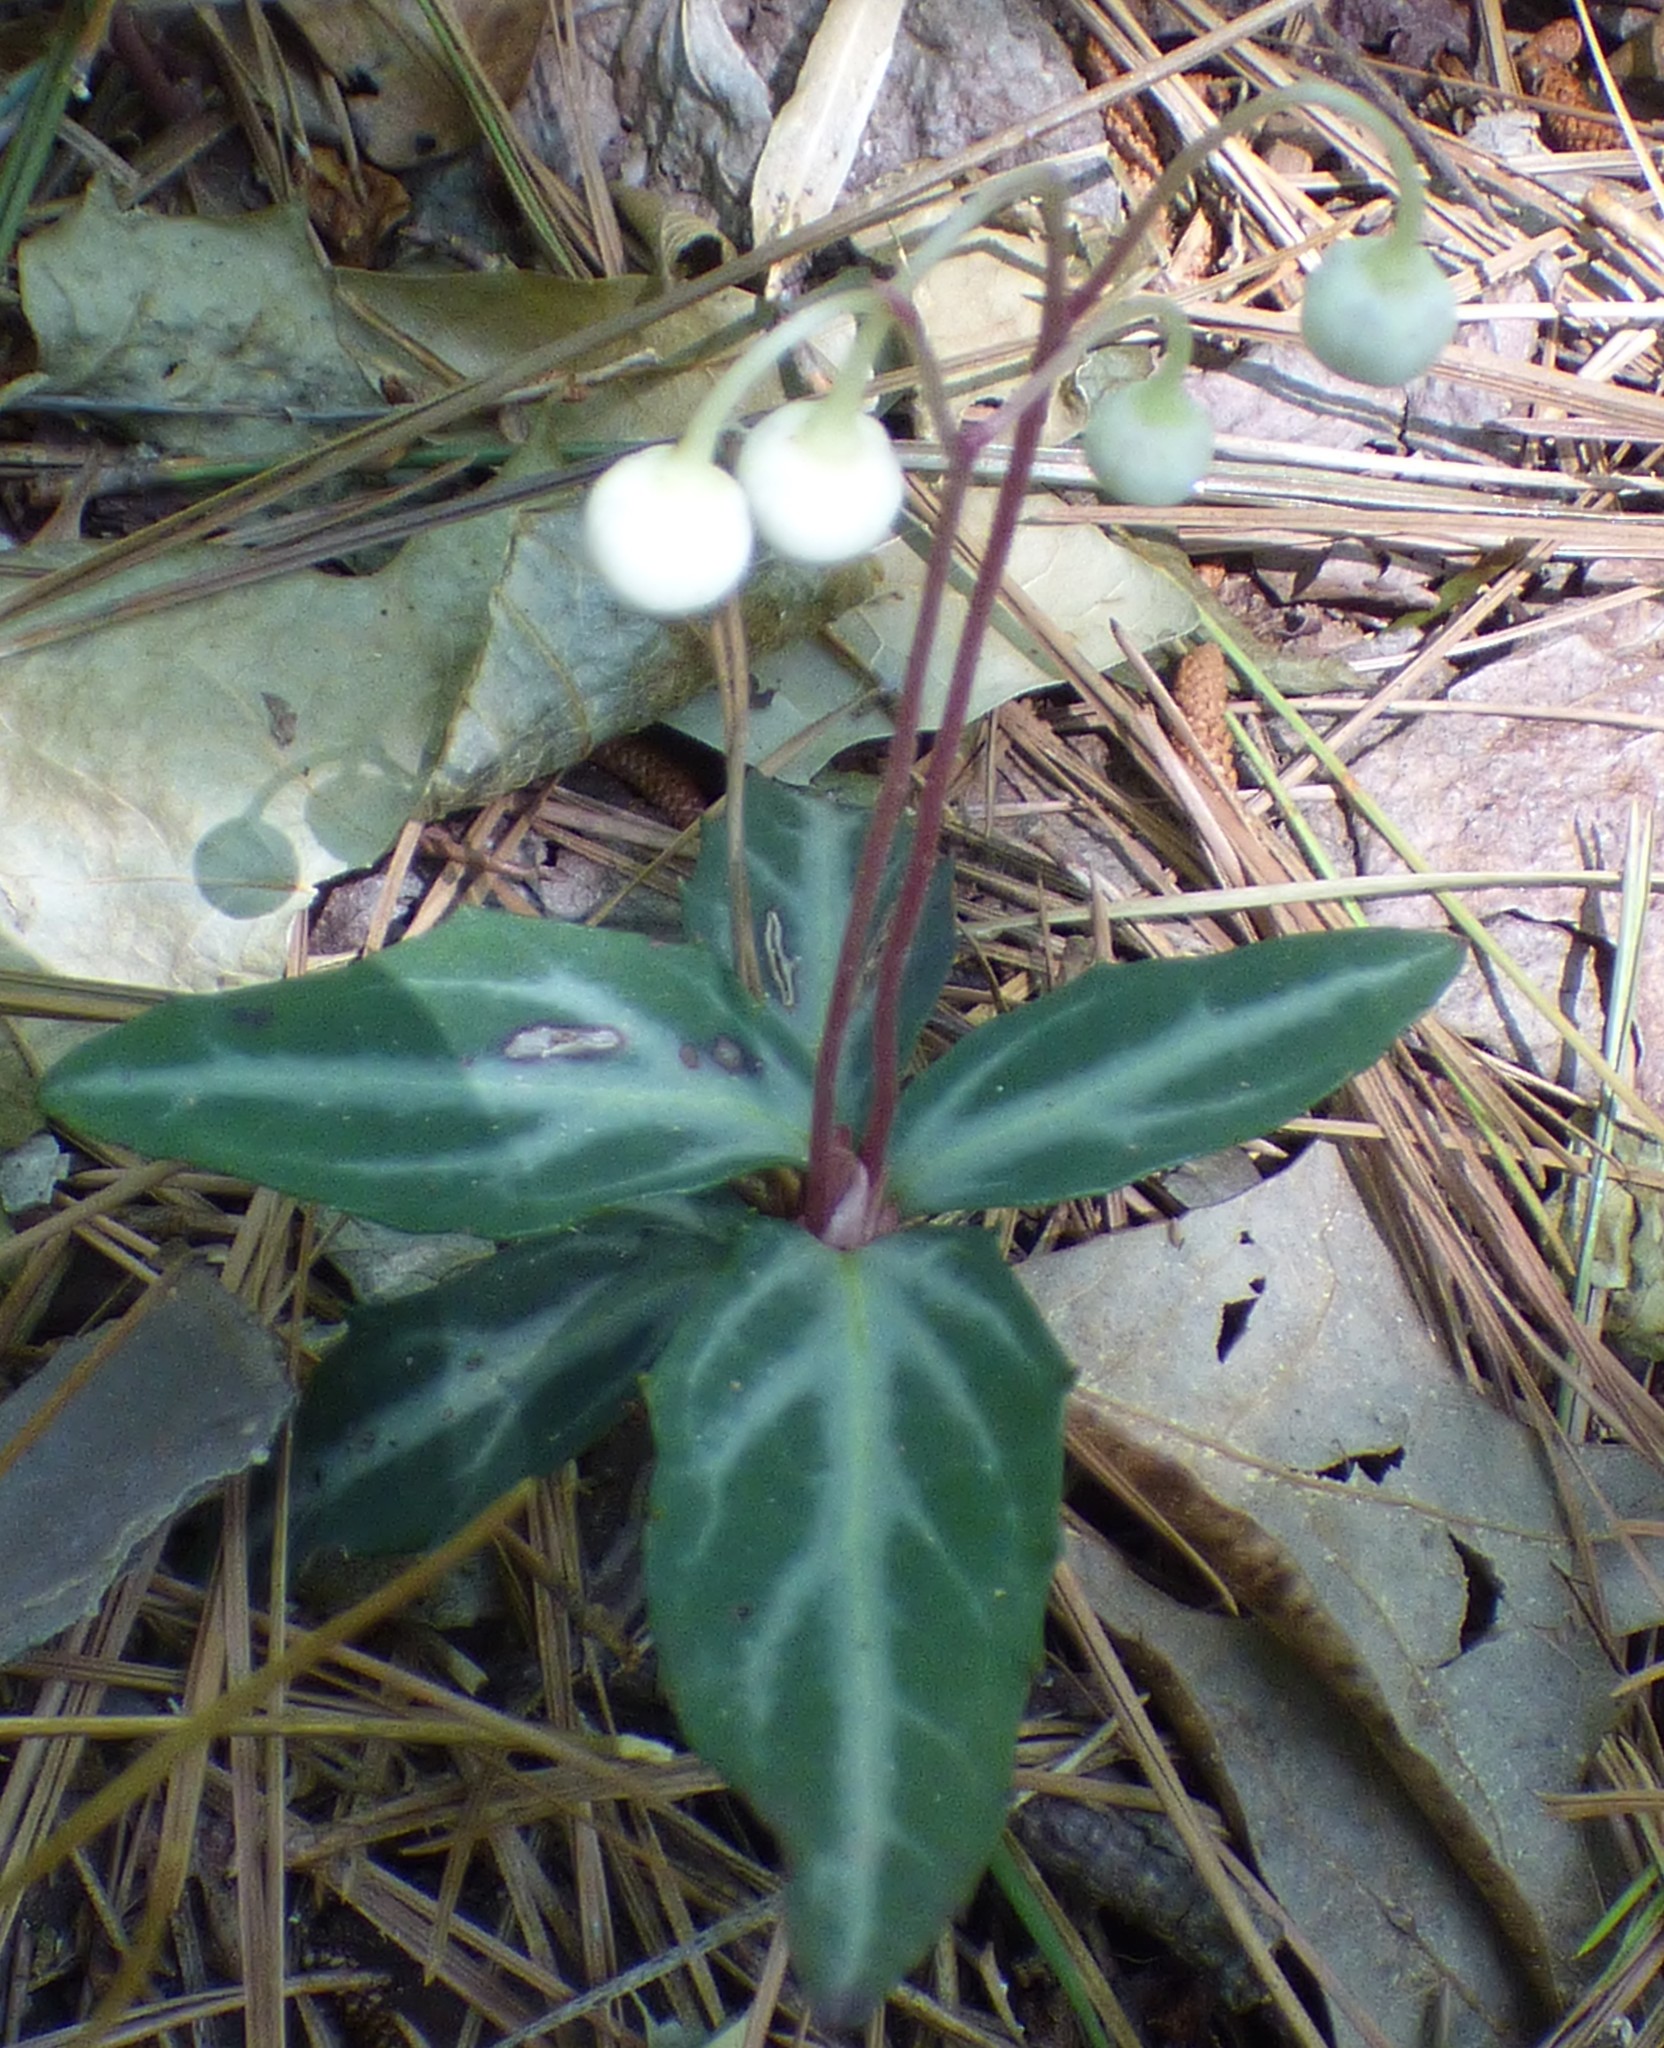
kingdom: Plantae
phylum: Tracheophyta
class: Magnoliopsida
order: Ericales
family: Ericaceae
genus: Chimaphila
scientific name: Chimaphila maculata
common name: Spotted pipsissewa
